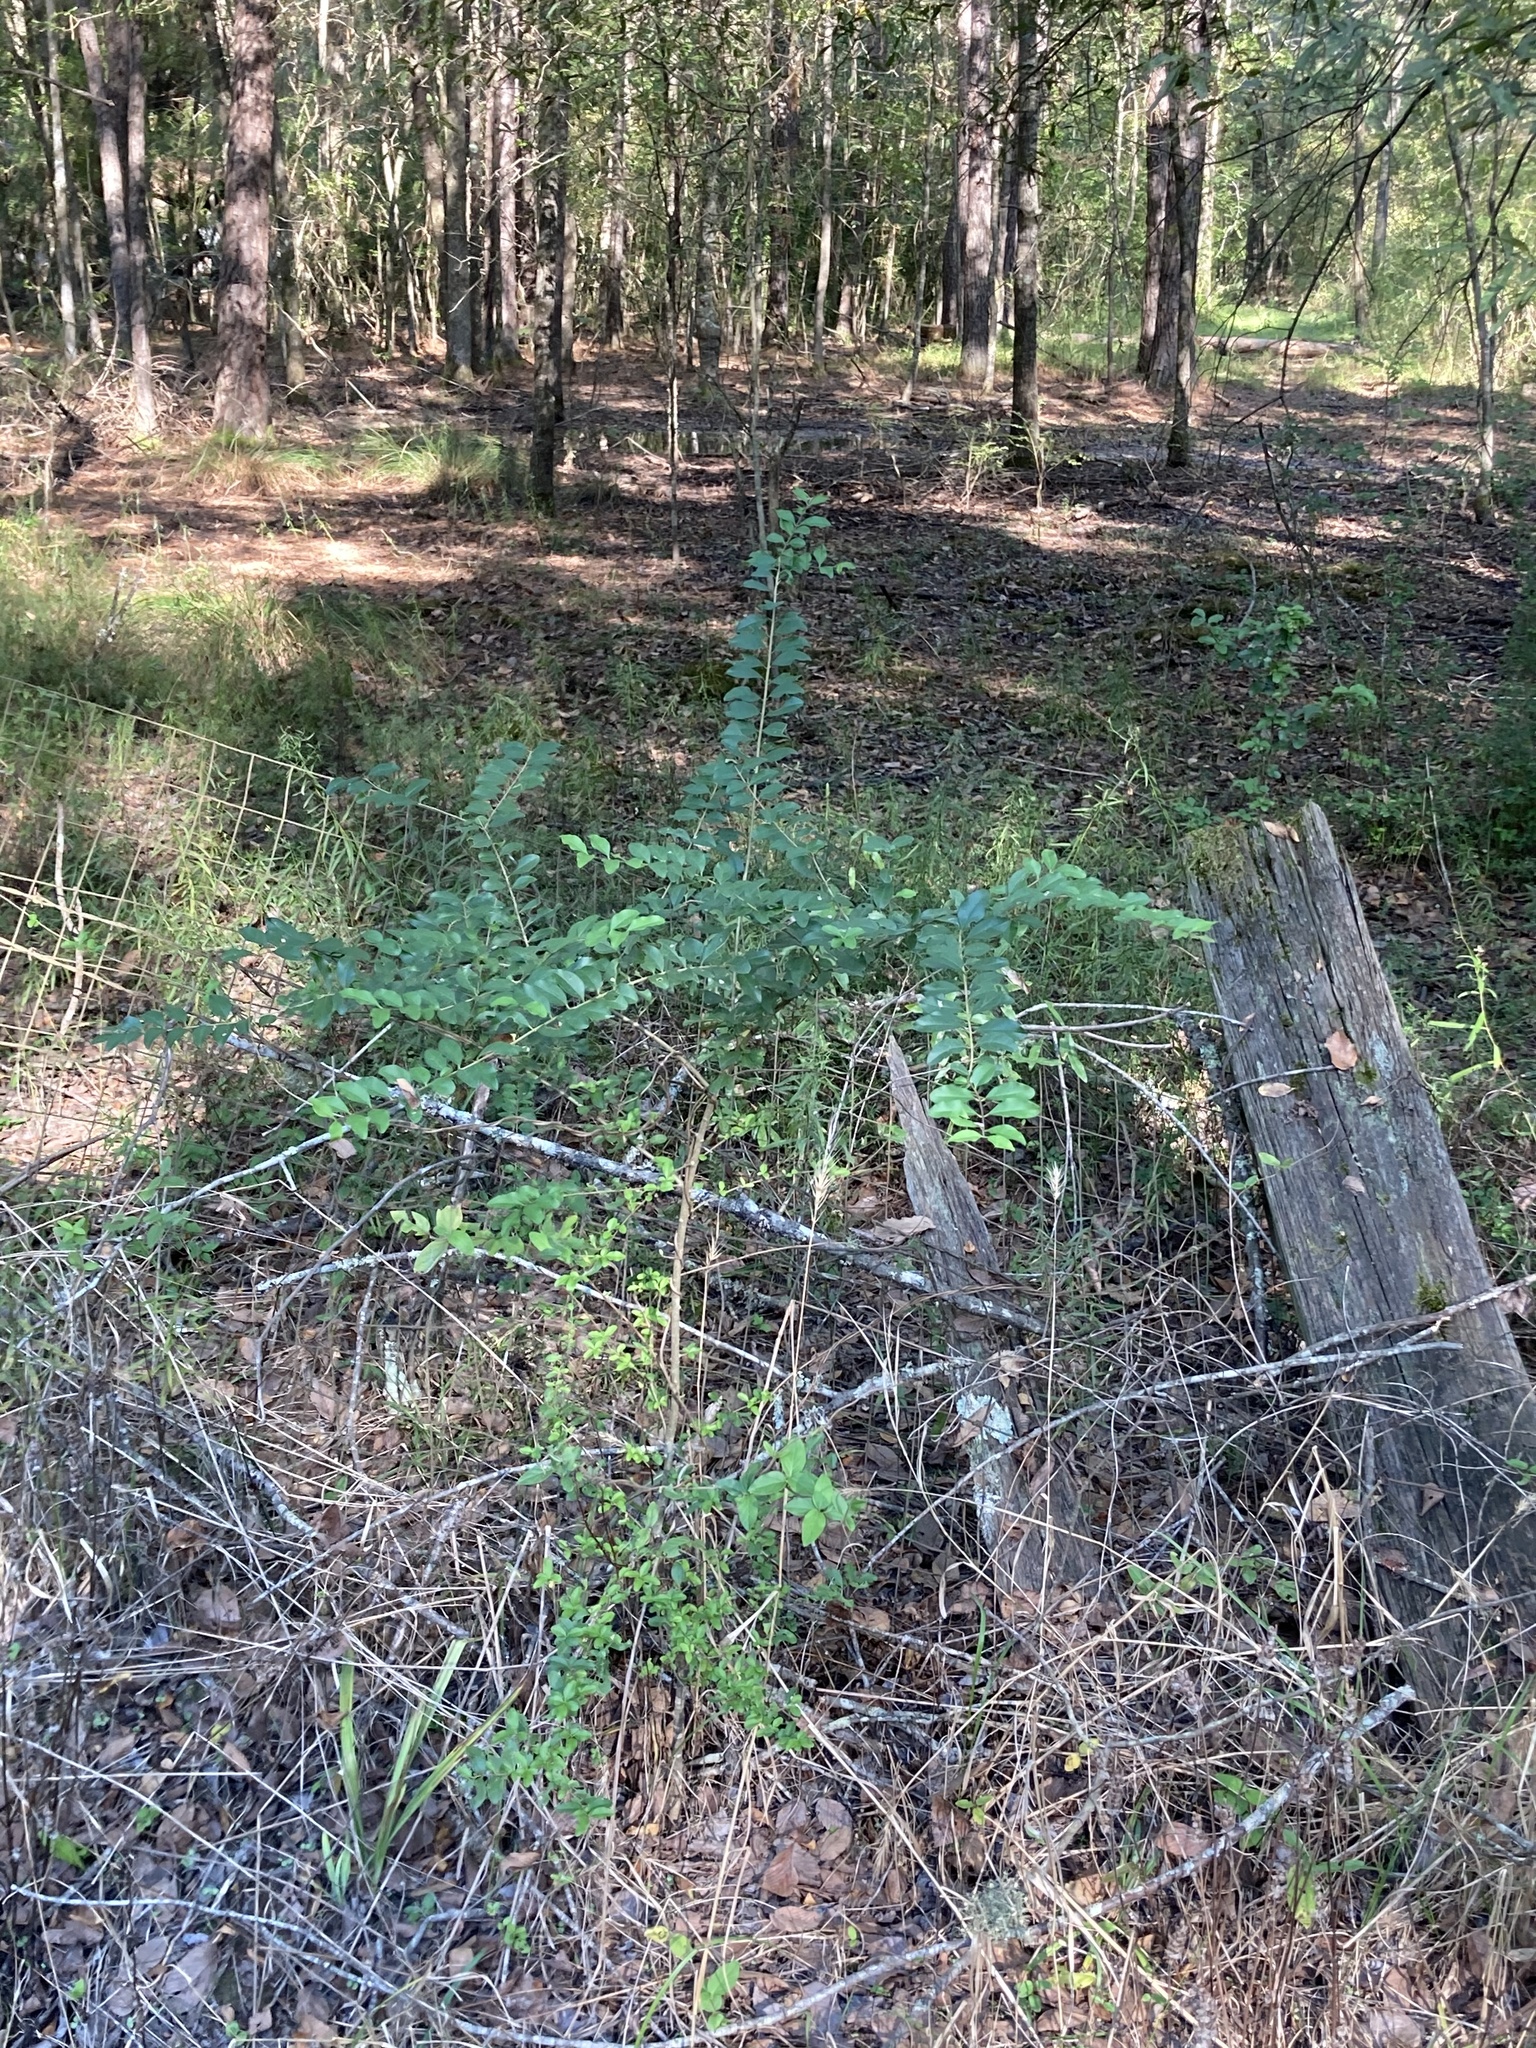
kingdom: Plantae
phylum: Tracheophyta
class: Magnoliopsida
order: Lamiales
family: Oleaceae
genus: Ligustrum
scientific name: Ligustrum sinense
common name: Chinese privet
